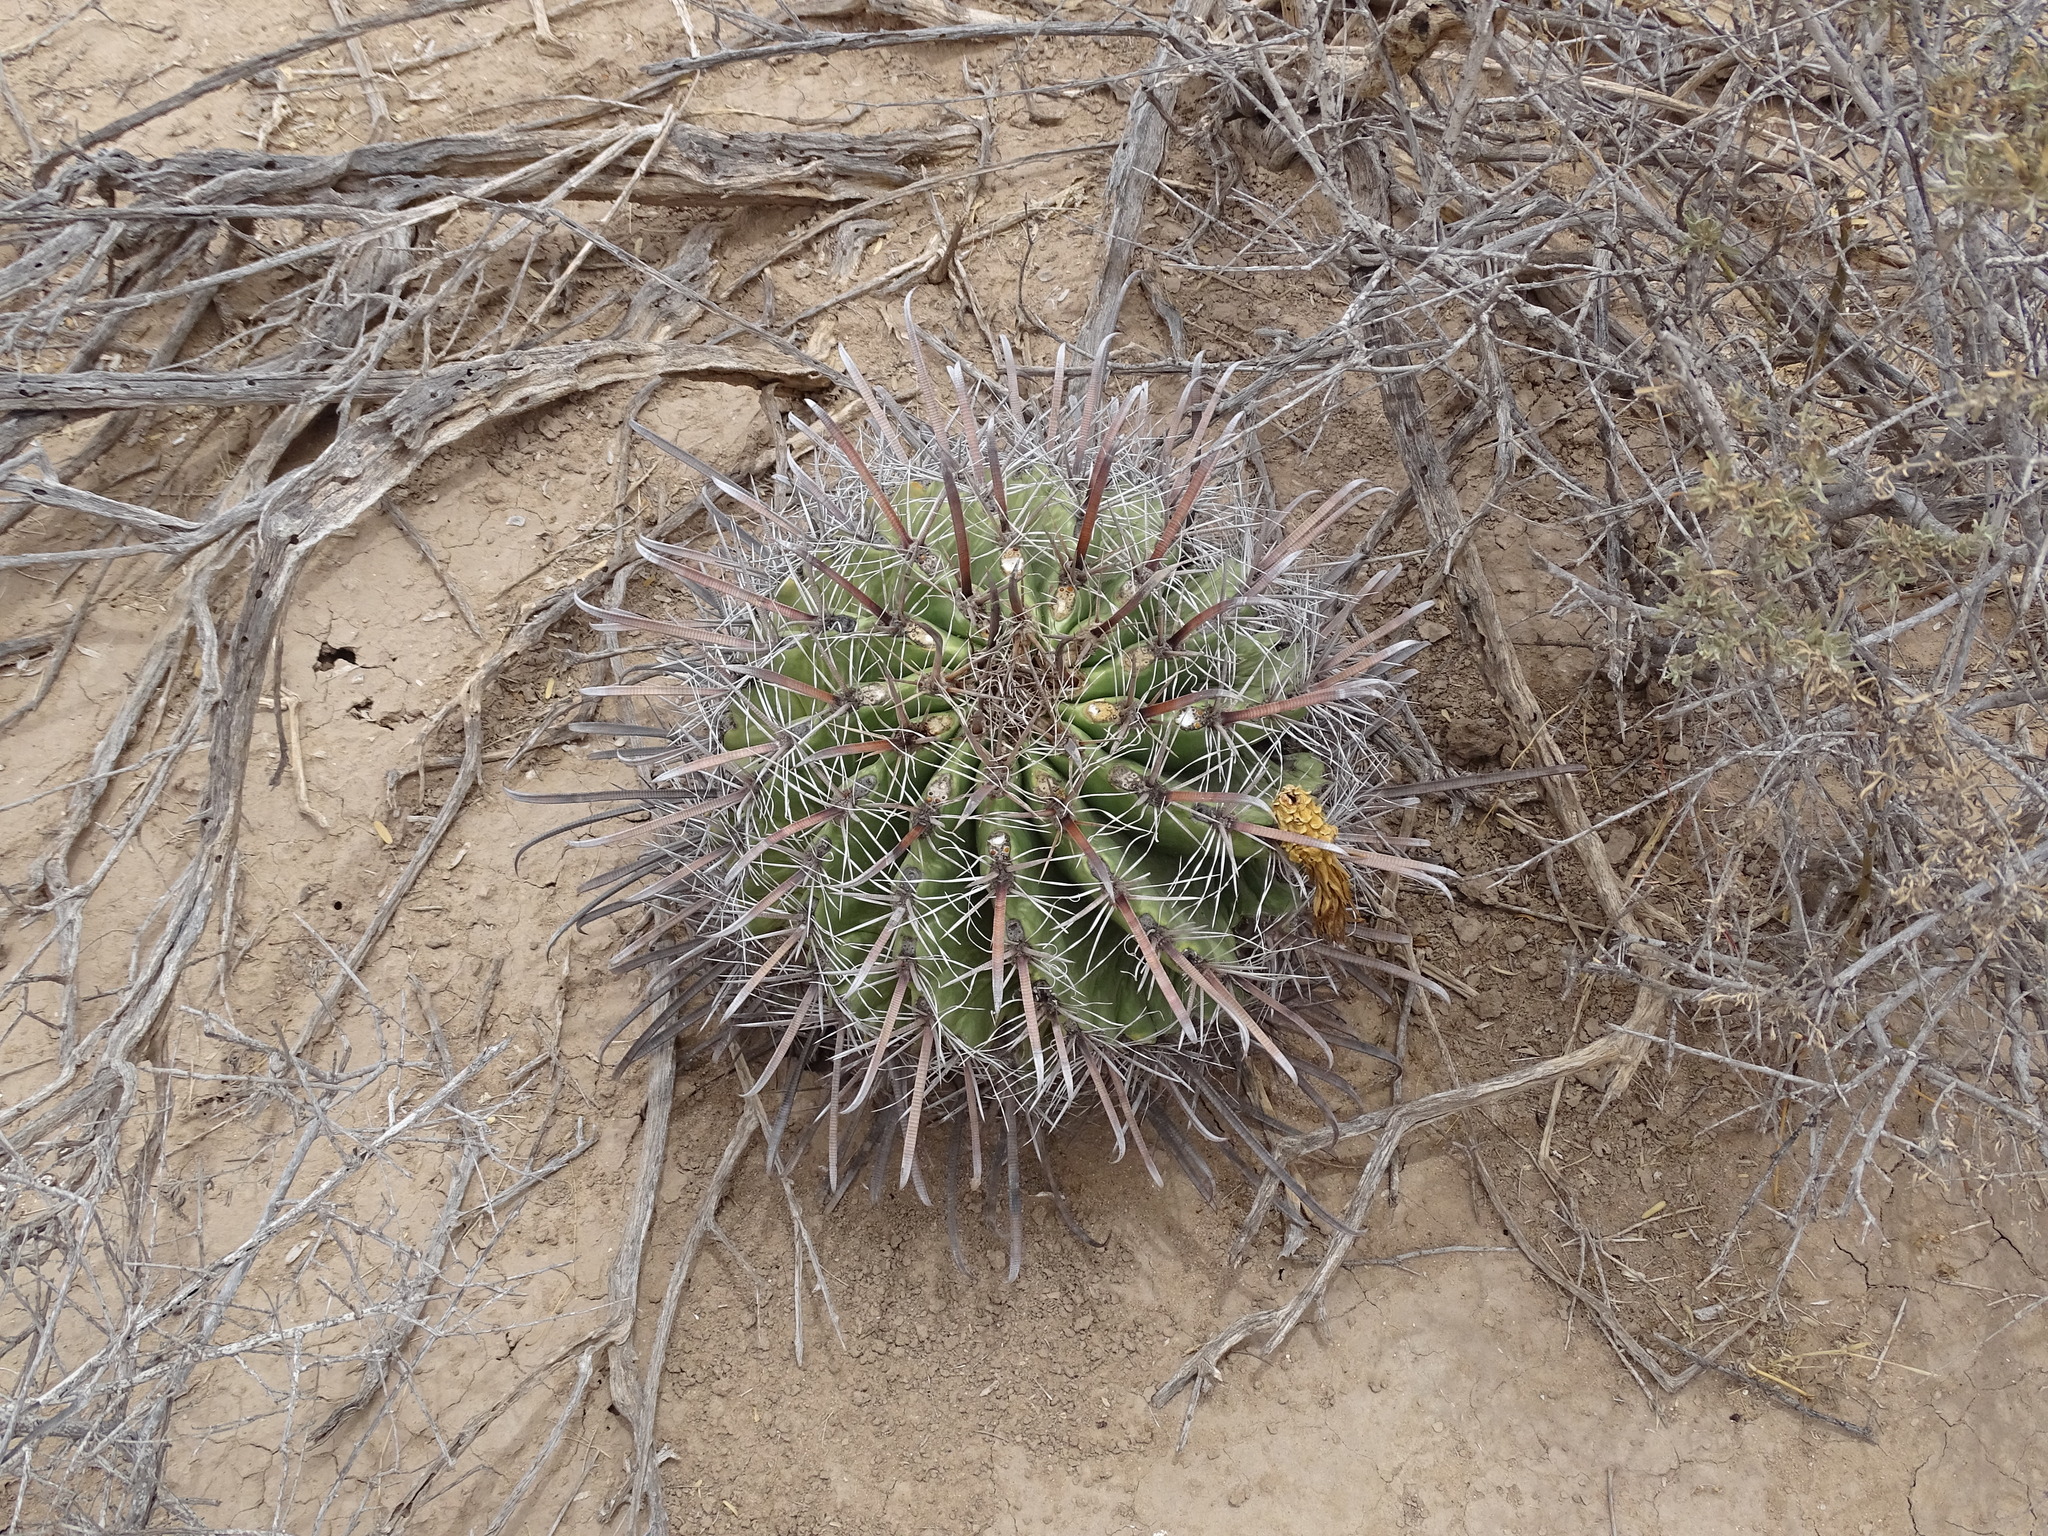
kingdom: Plantae
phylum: Tracheophyta
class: Magnoliopsida
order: Caryophyllales
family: Cactaceae
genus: Ferocactus
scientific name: Ferocactus wislizeni
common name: Candy barrel cactus
